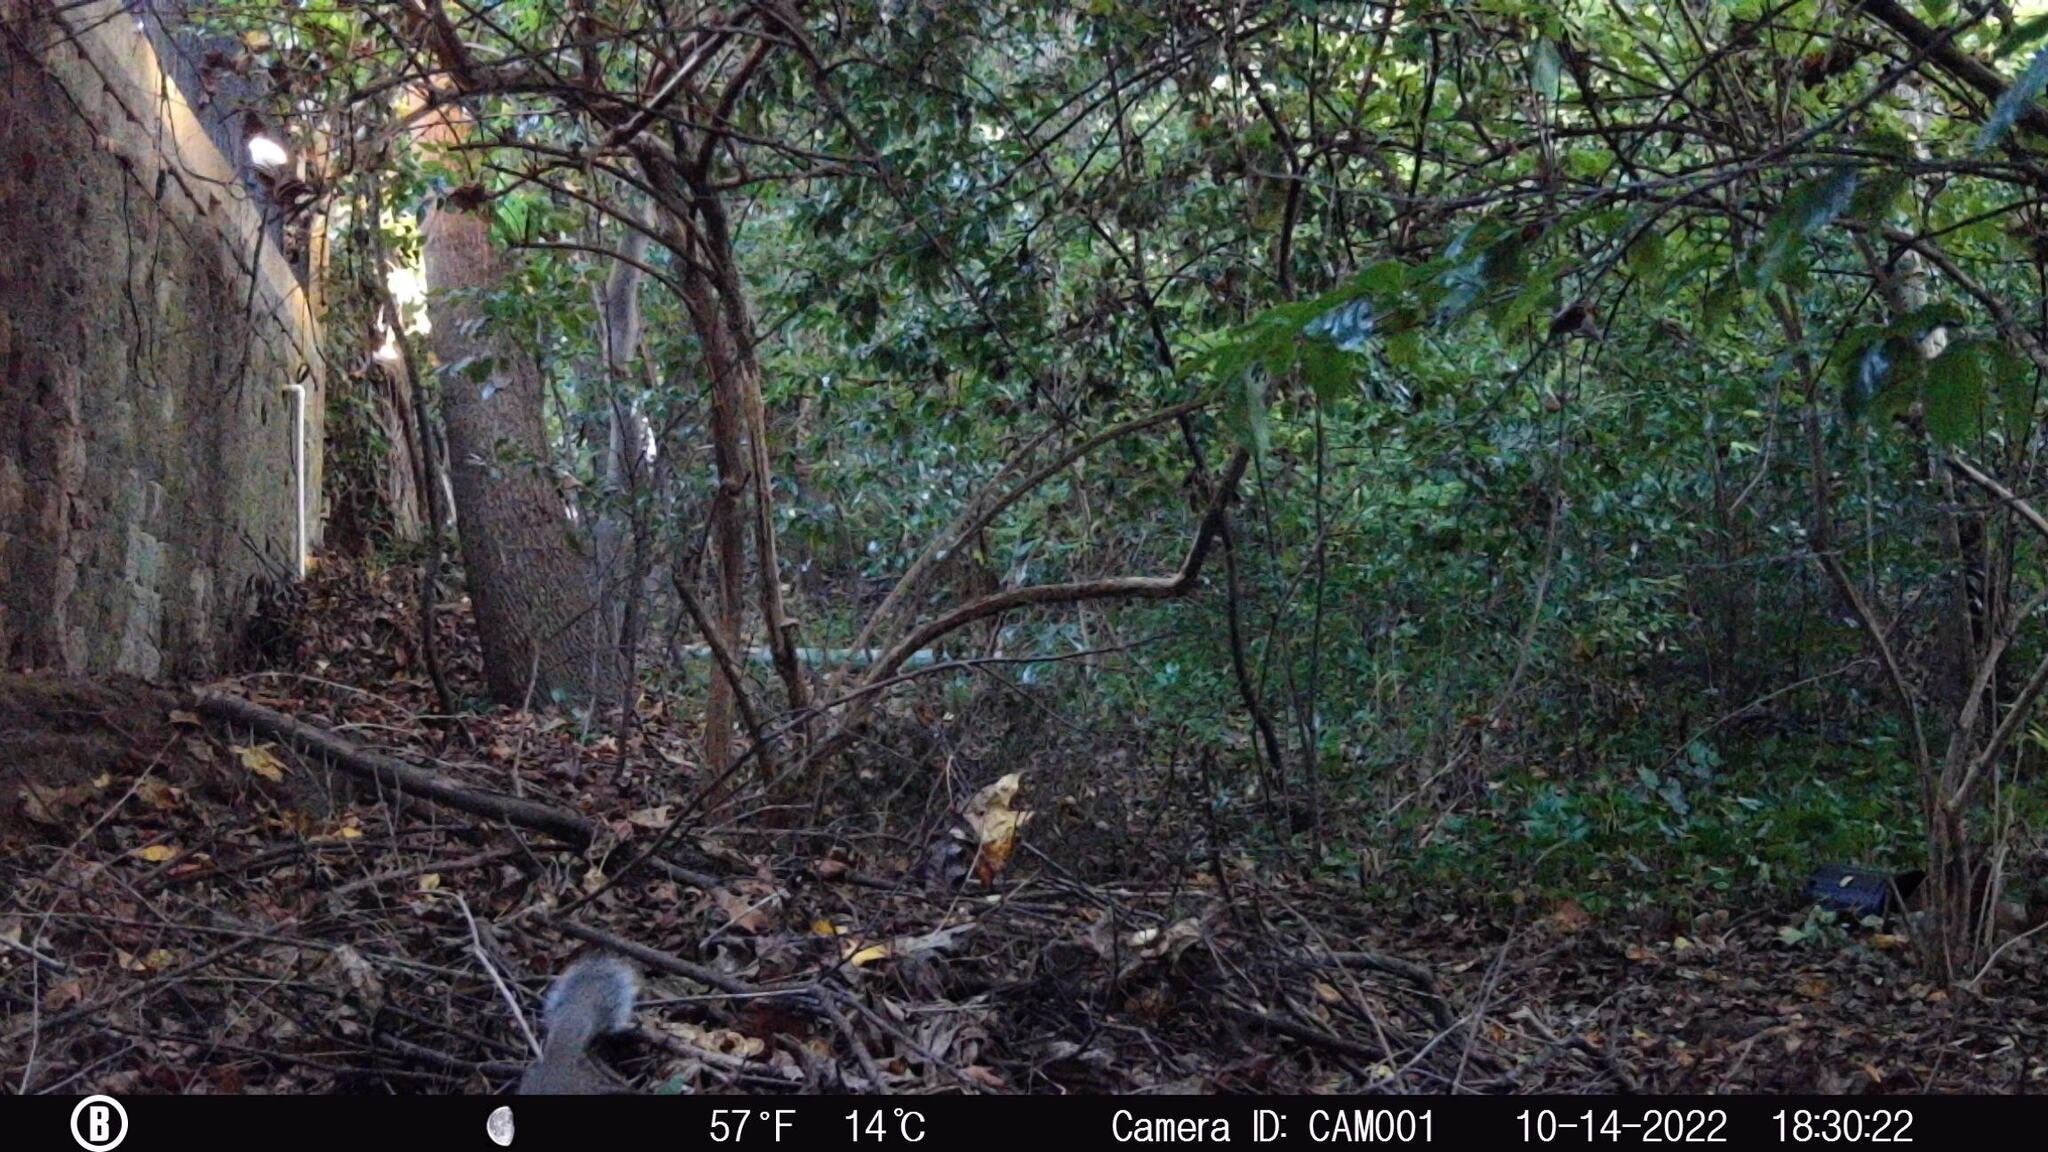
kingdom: Animalia
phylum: Chordata
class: Mammalia
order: Rodentia
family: Sciuridae
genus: Sciurus
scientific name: Sciurus carolinensis
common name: Eastern gray squirrel
